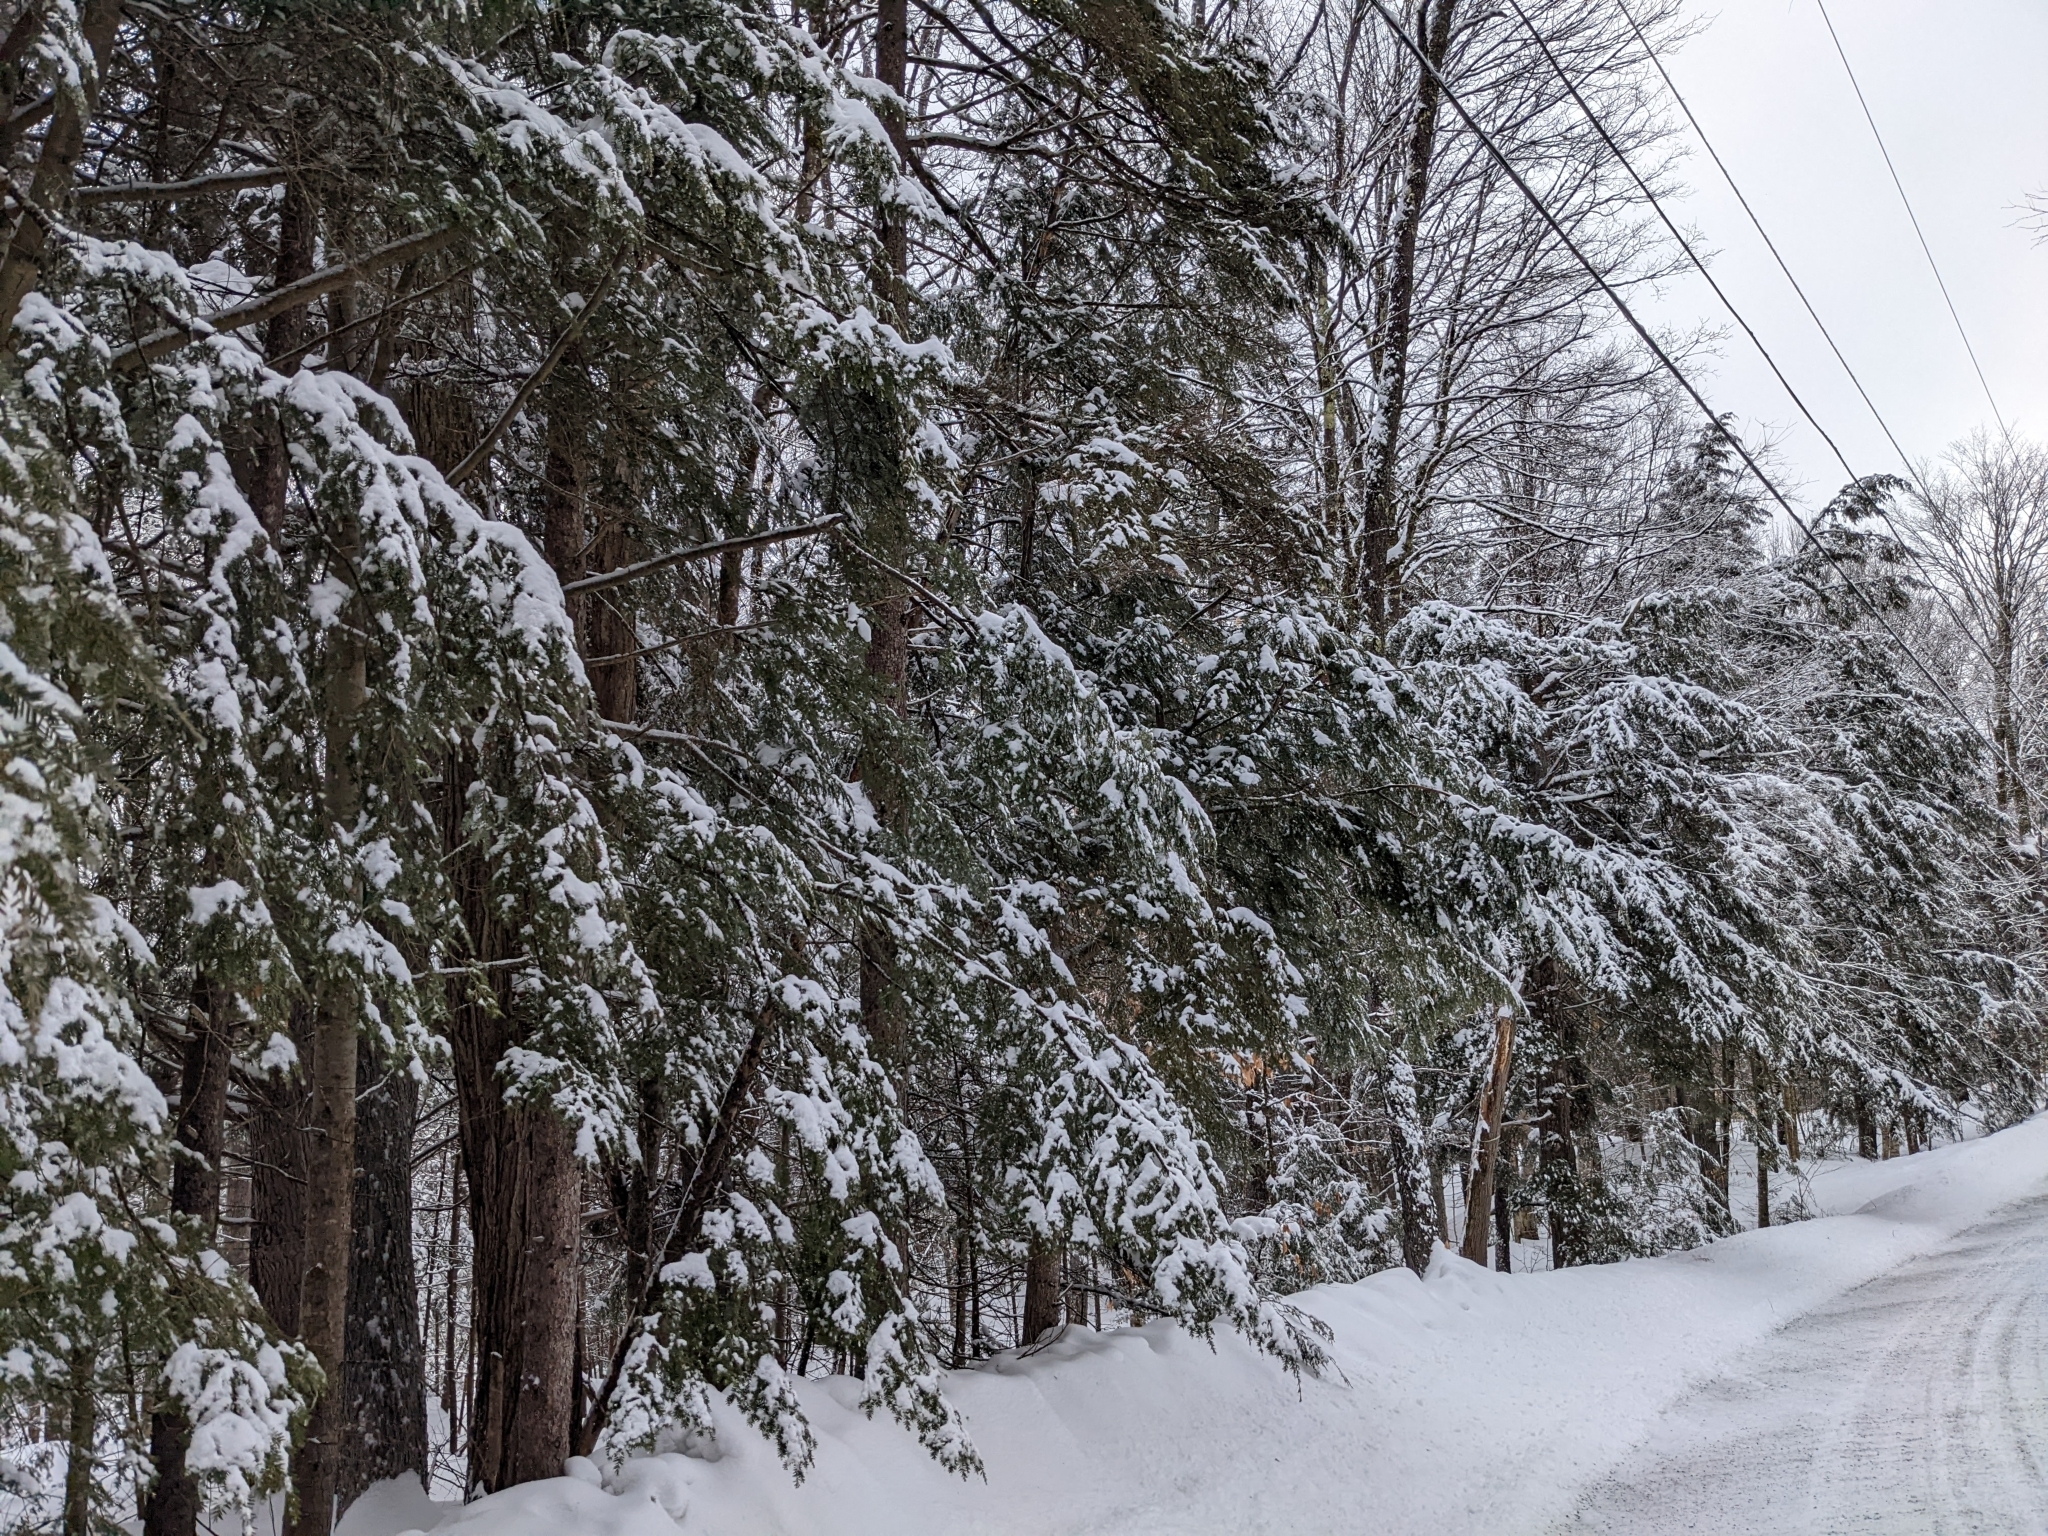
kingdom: Plantae
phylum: Tracheophyta
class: Pinopsida
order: Pinales
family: Pinaceae
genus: Tsuga
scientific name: Tsuga canadensis
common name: Eastern hemlock
